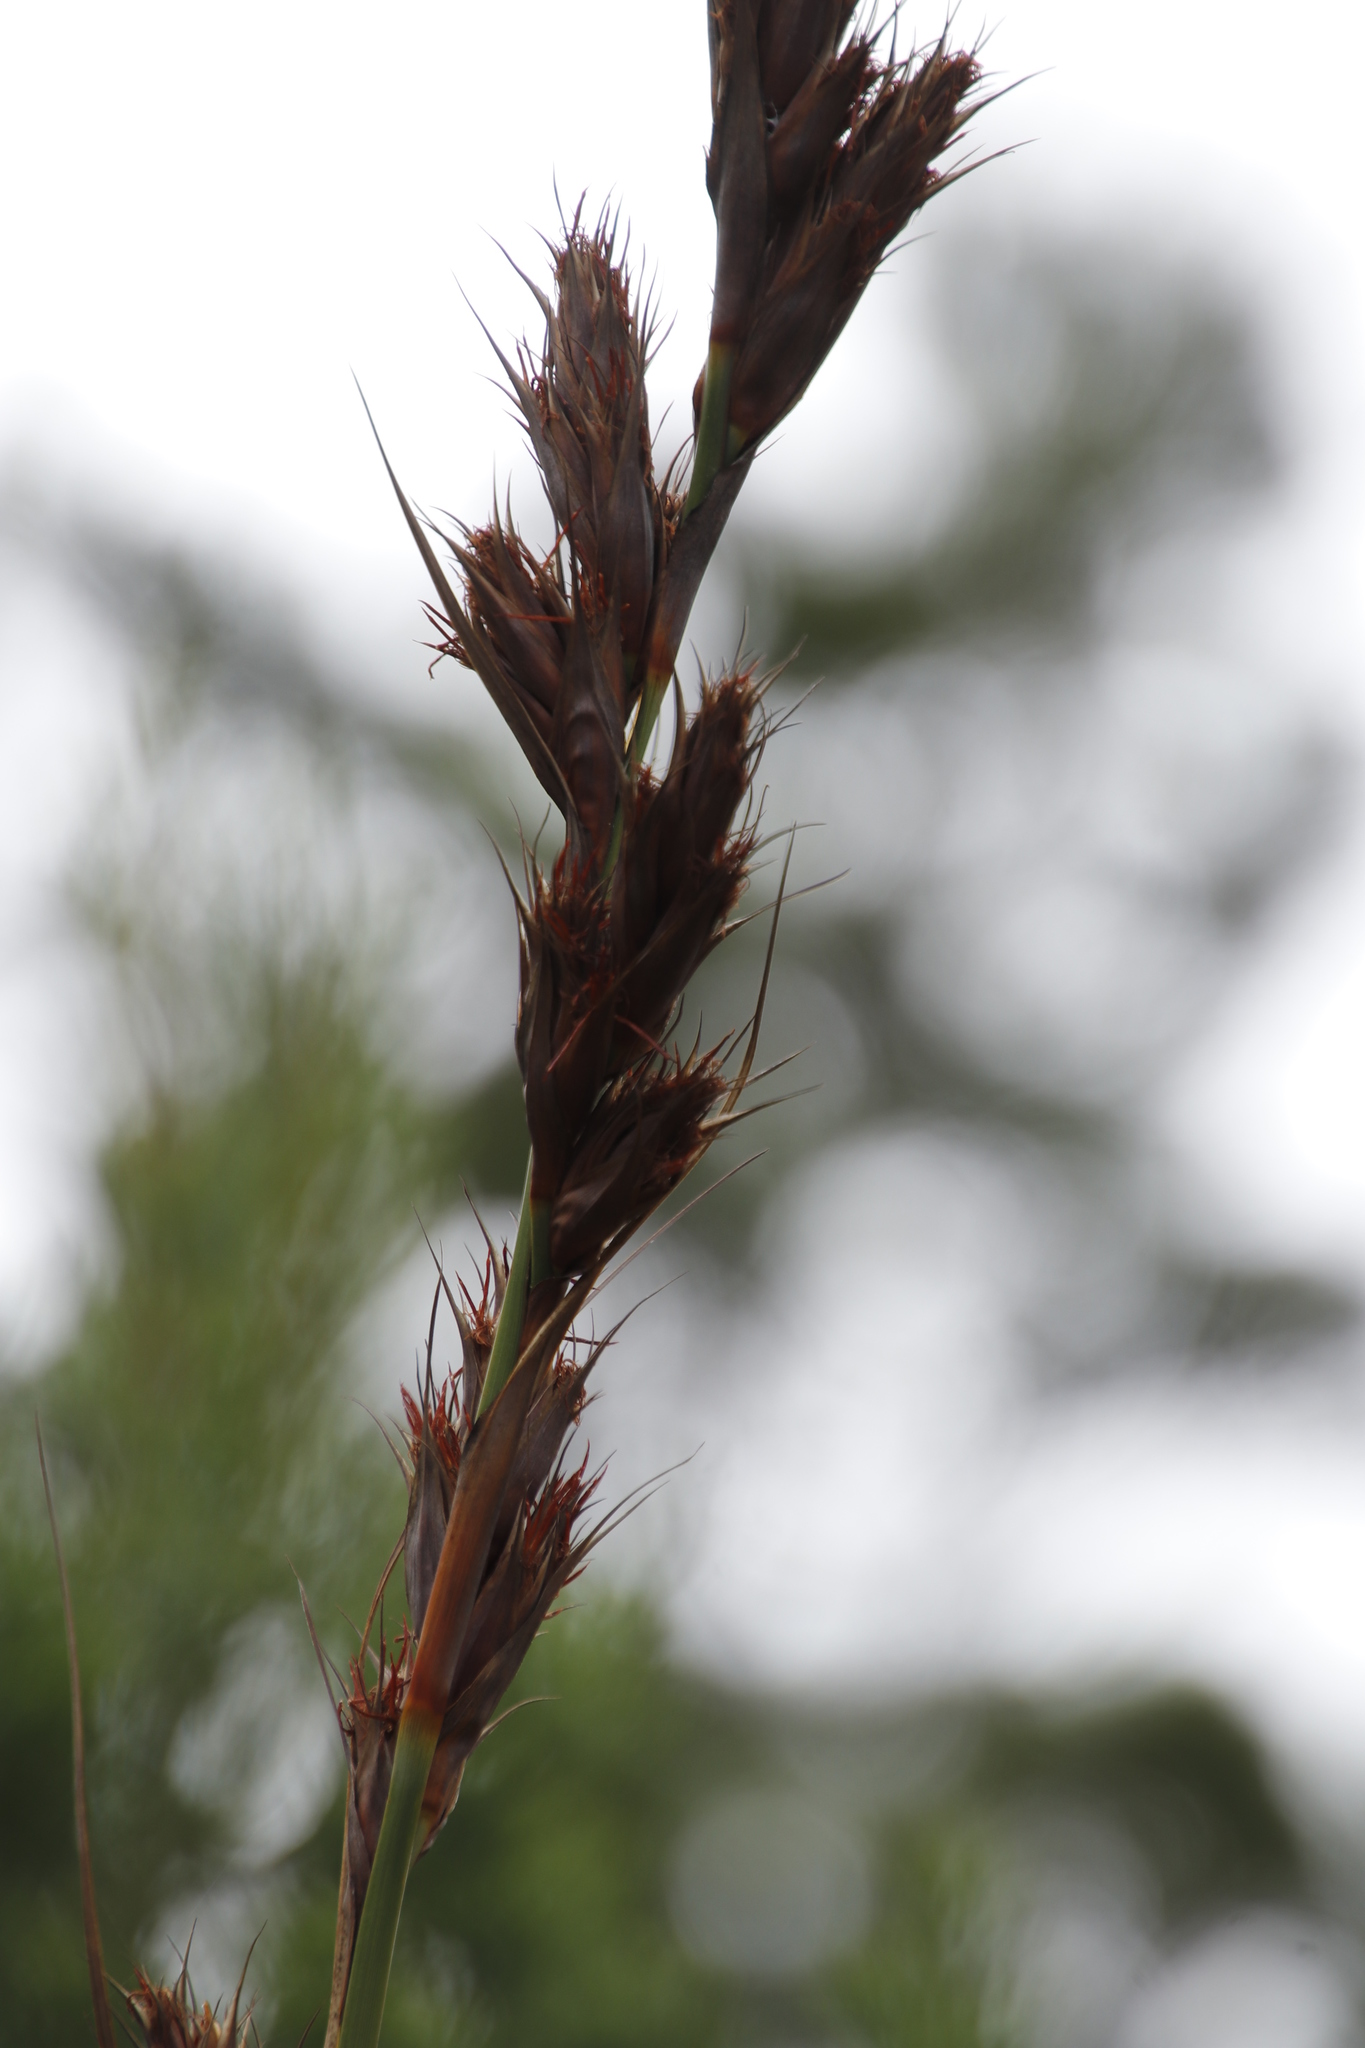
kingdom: Plantae
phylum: Tracheophyta
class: Liliopsida
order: Poales
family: Cyperaceae
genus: Tetraria
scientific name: Tetraria thermalis
